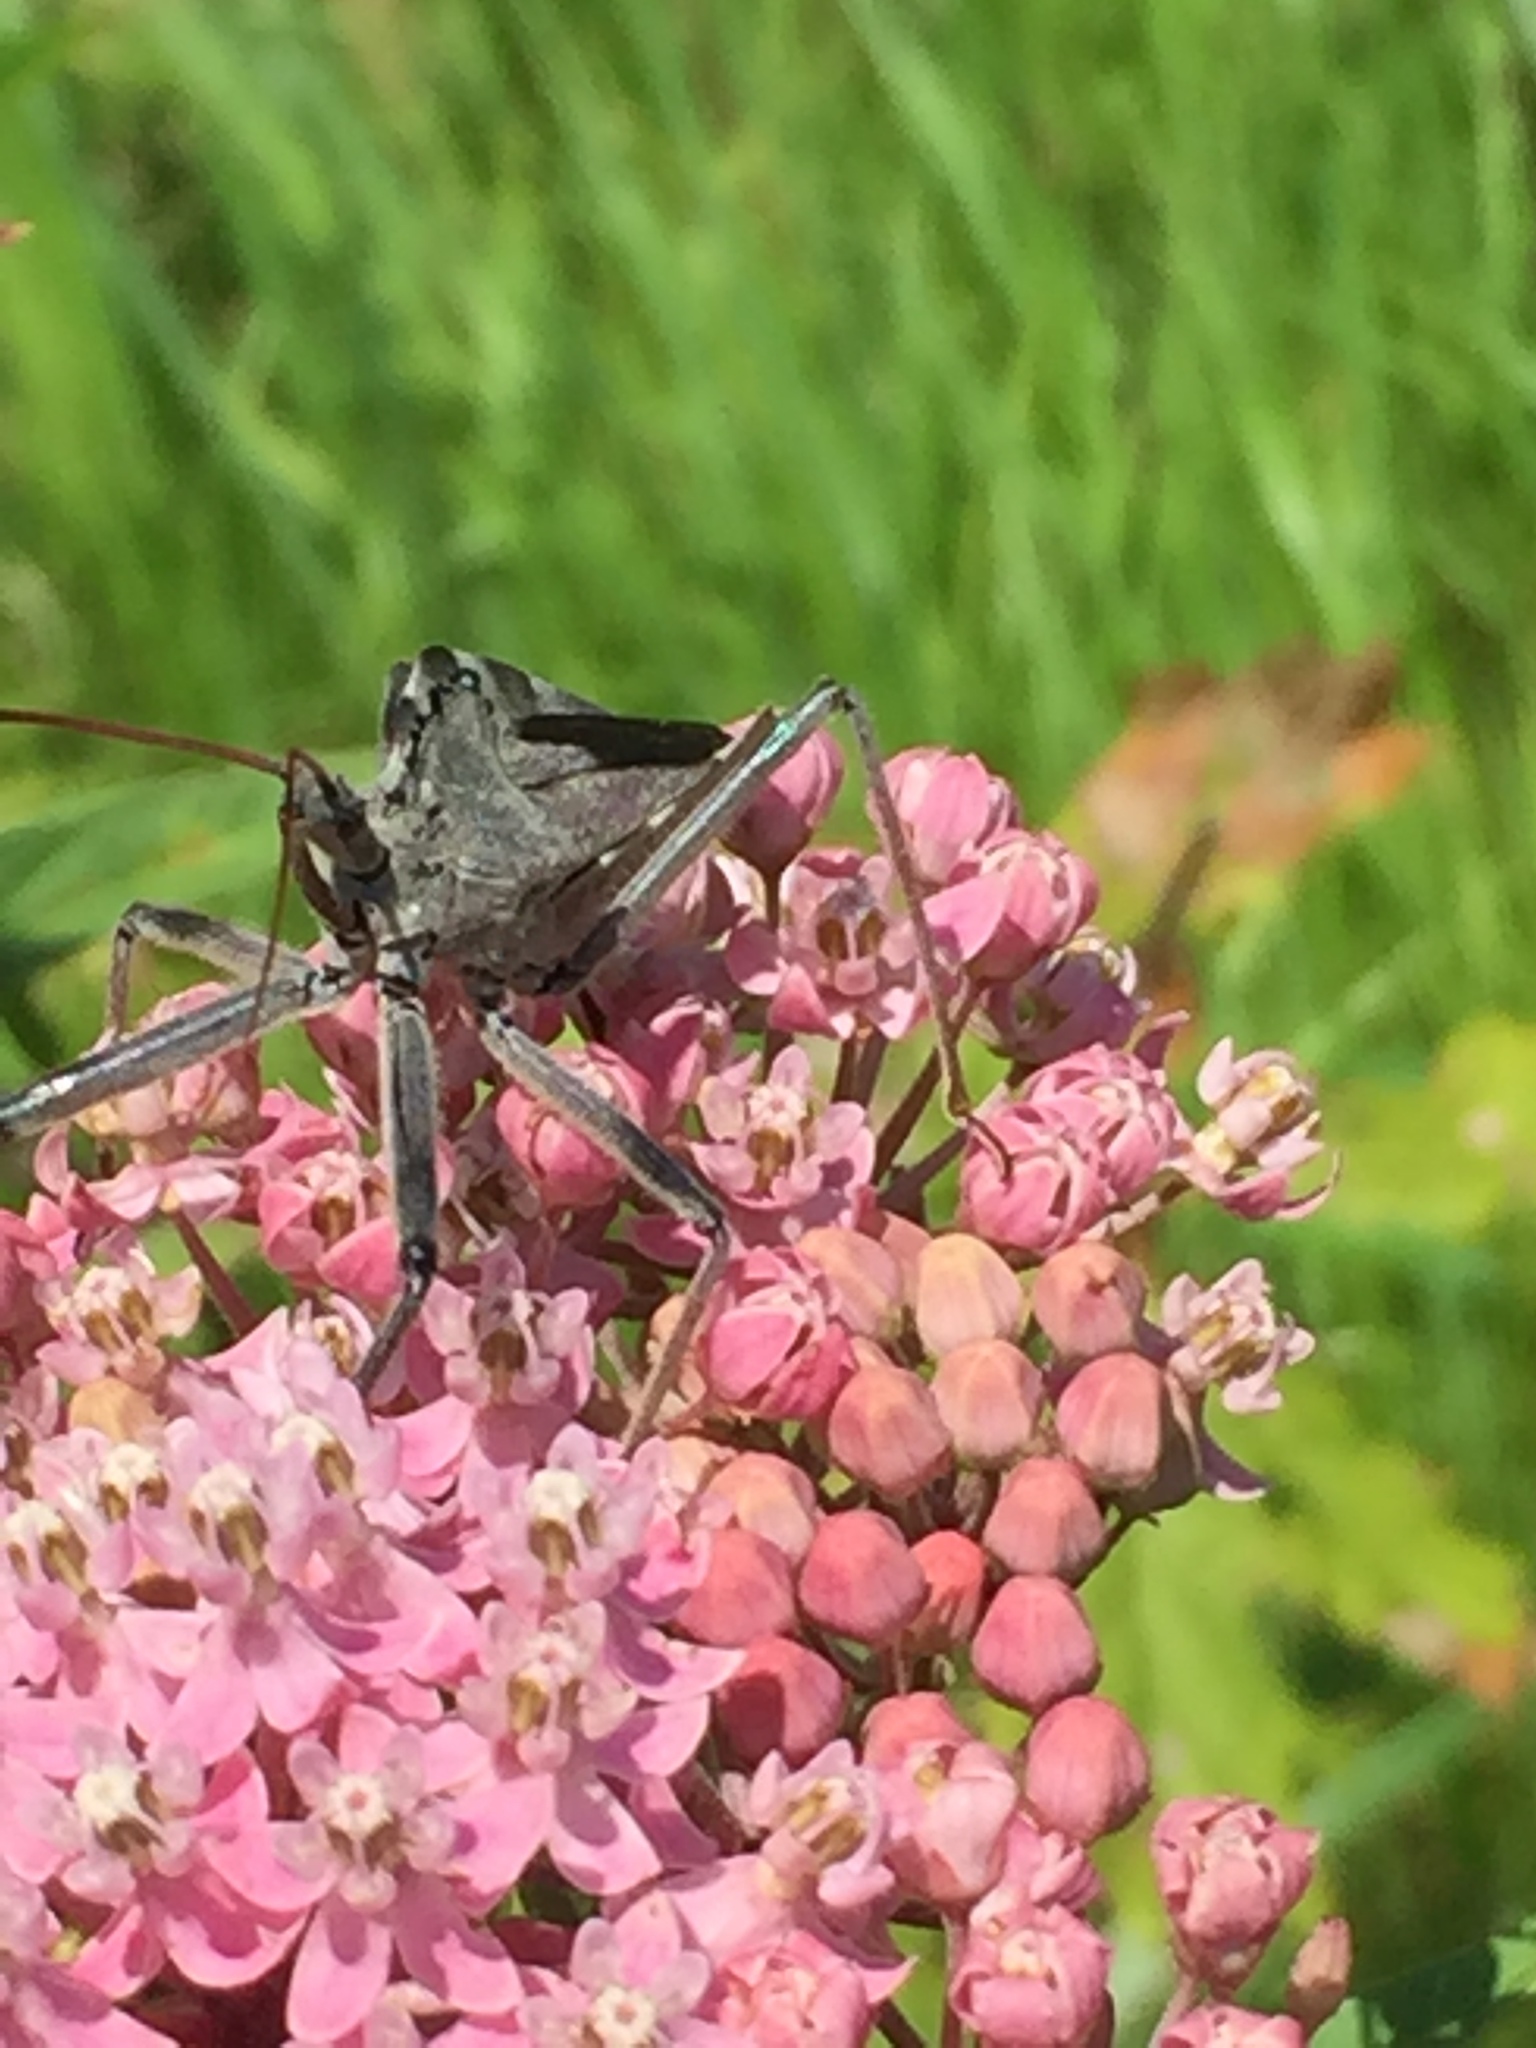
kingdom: Animalia
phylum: Arthropoda
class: Insecta
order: Hemiptera
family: Reduviidae
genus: Arilus
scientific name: Arilus cristatus
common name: North american wheel bug
